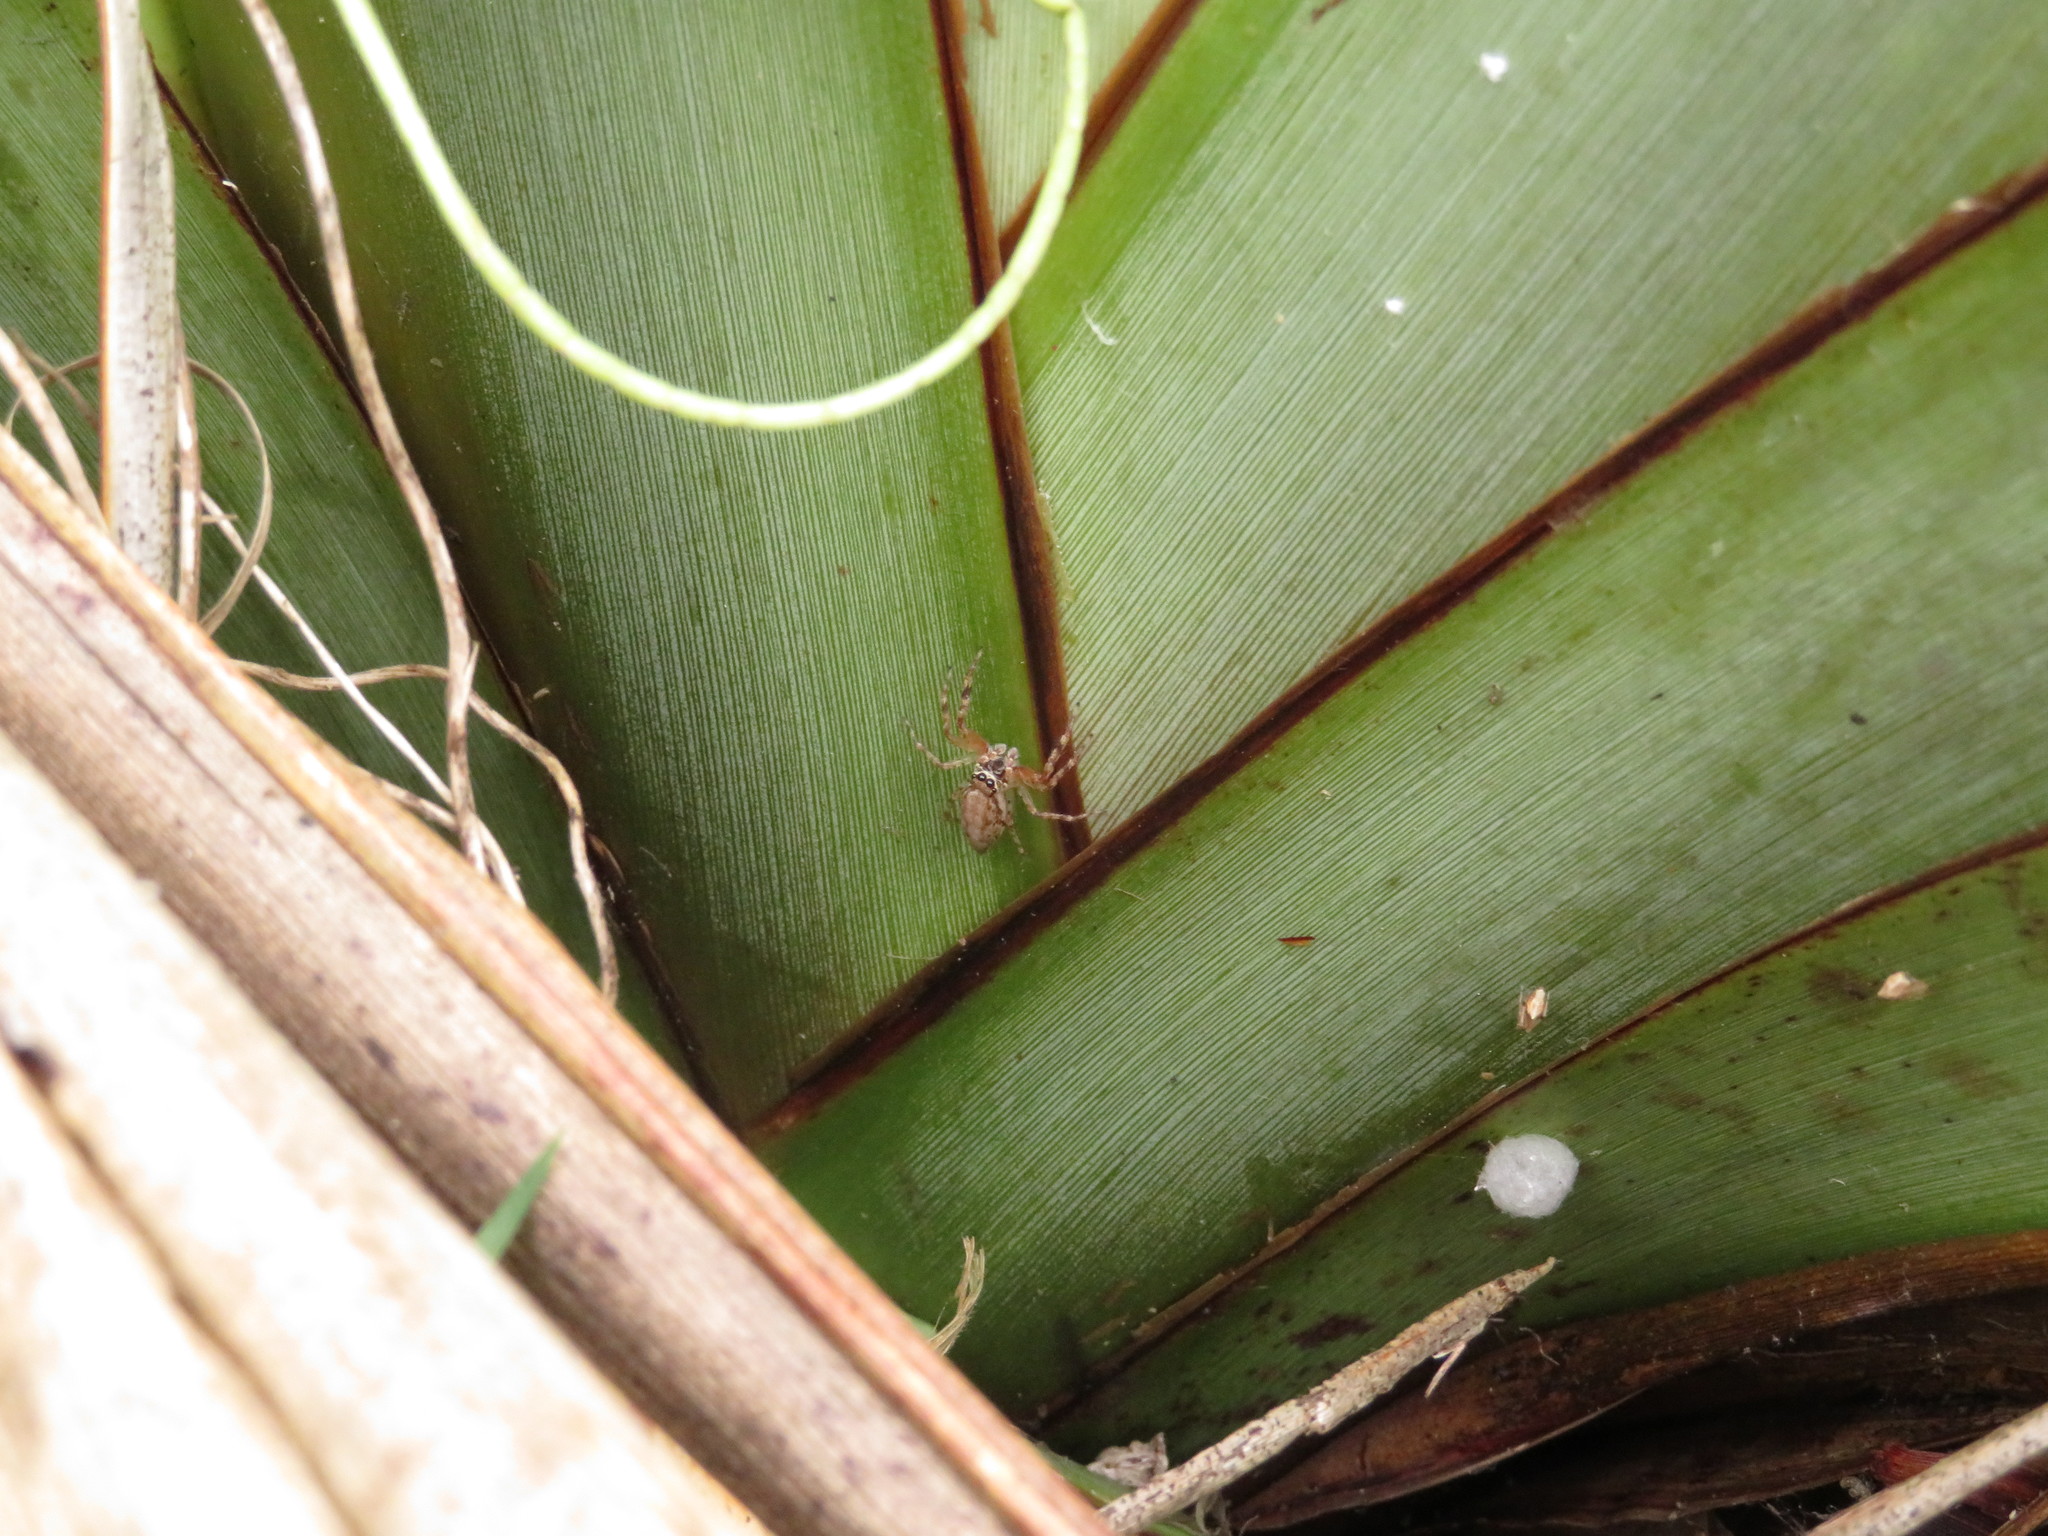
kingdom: Animalia
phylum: Arthropoda
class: Arachnida
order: Araneae
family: Salticidae
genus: Helpis
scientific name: Helpis minitabunda
